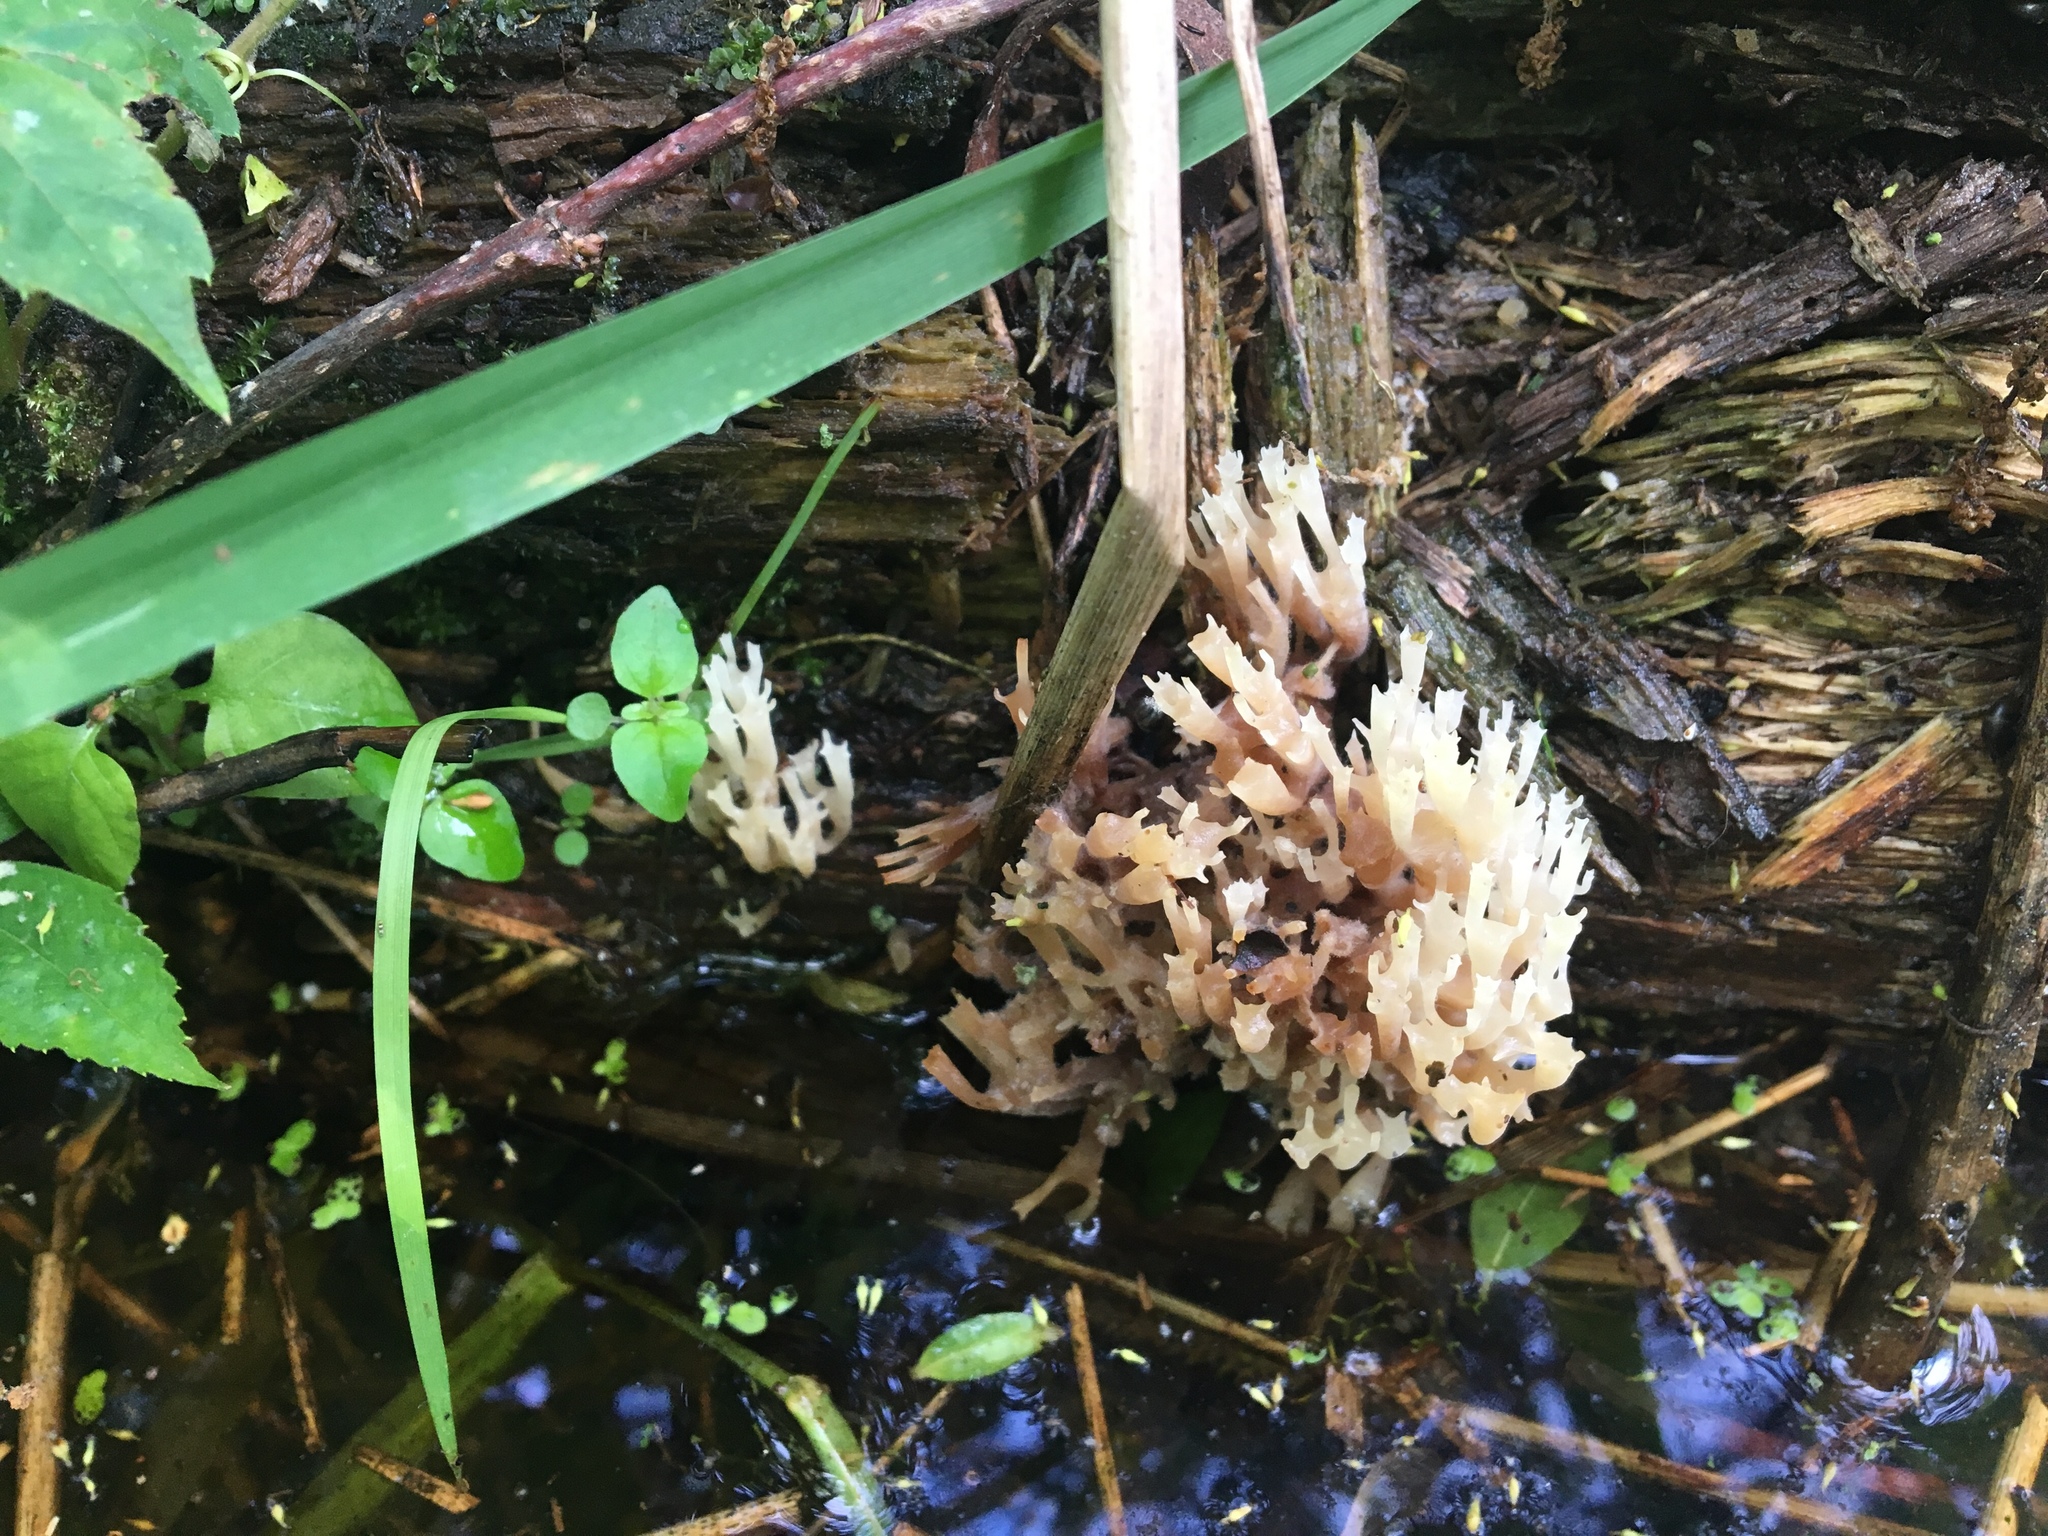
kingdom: Fungi
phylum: Basidiomycota
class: Agaricomycetes
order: Russulales
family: Auriscalpiaceae
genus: Artomyces
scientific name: Artomyces pyxidatus
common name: Crown-tipped coral fungus
